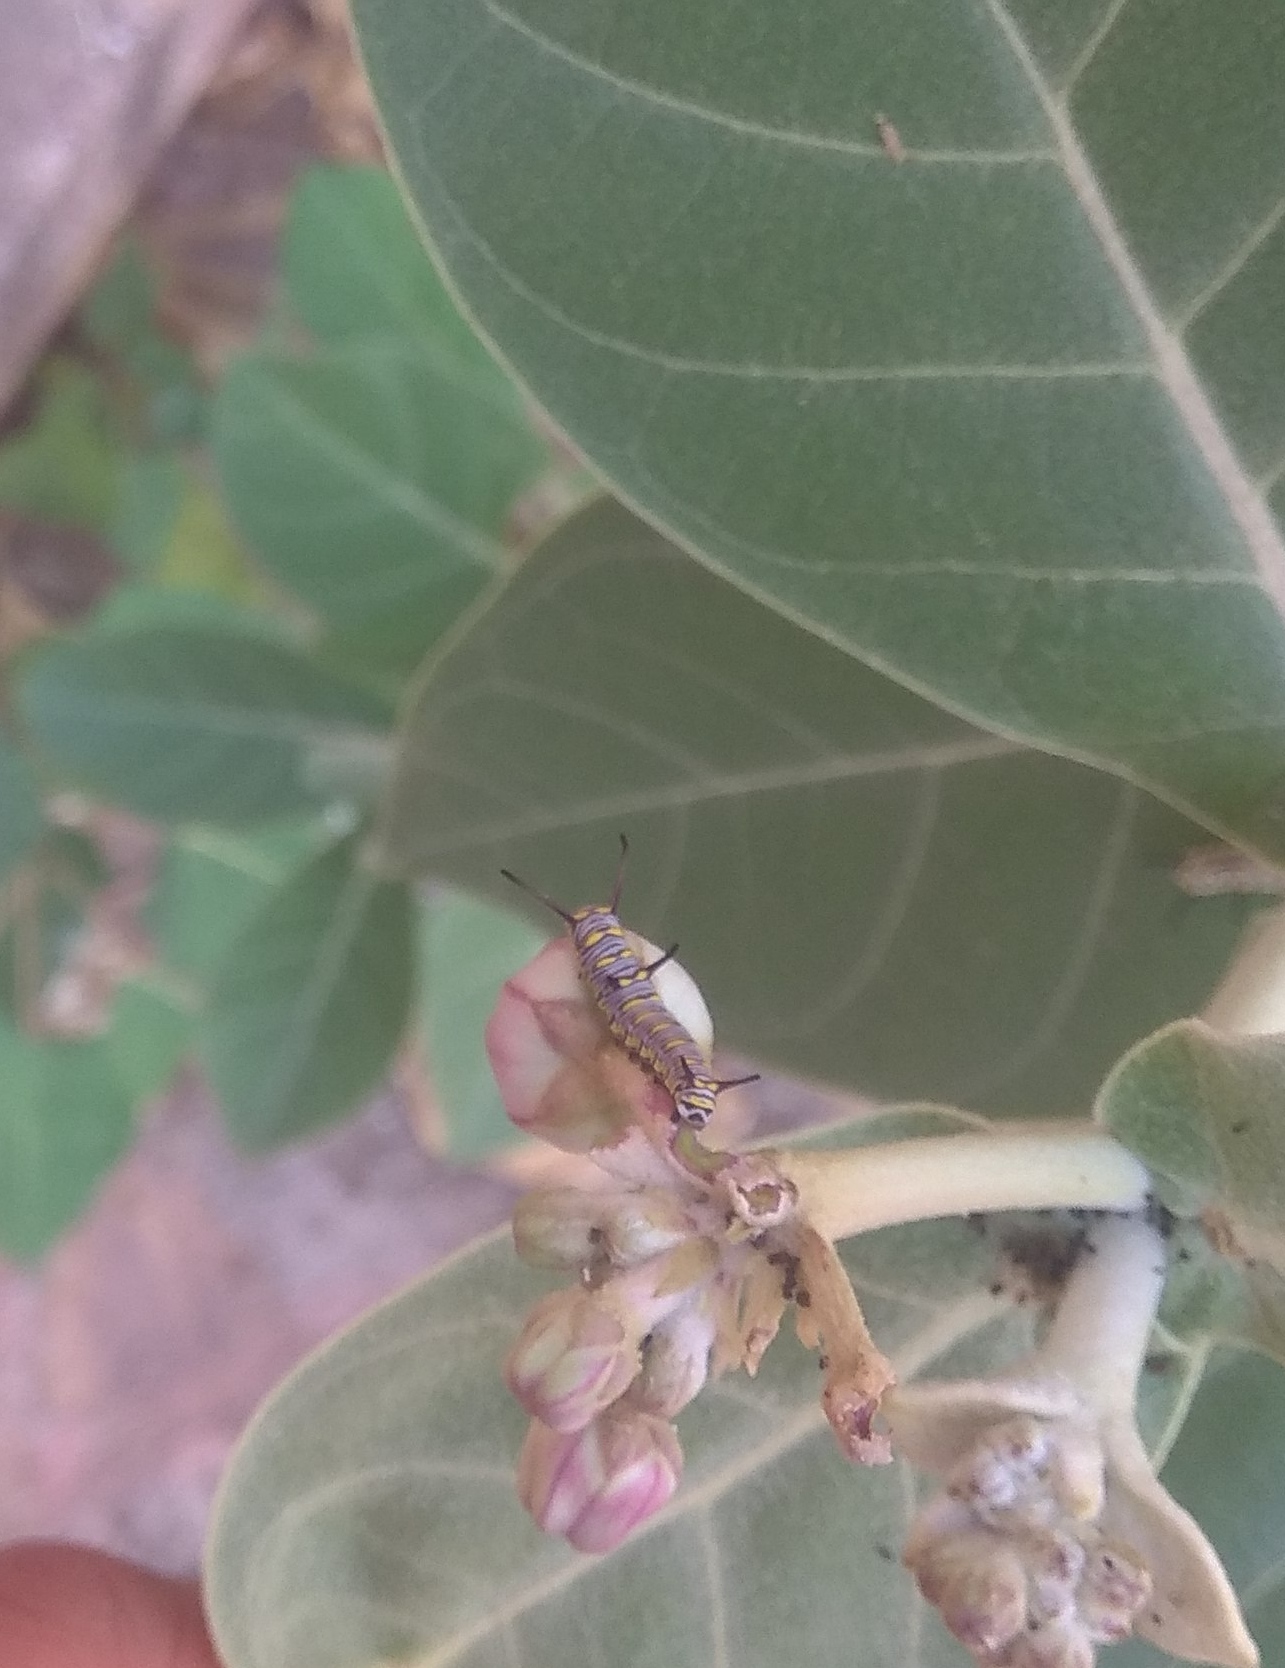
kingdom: Animalia
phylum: Arthropoda
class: Insecta
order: Lepidoptera
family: Nymphalidae
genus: Danaus
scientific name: Danaus chrysippus
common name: Plain tiger
